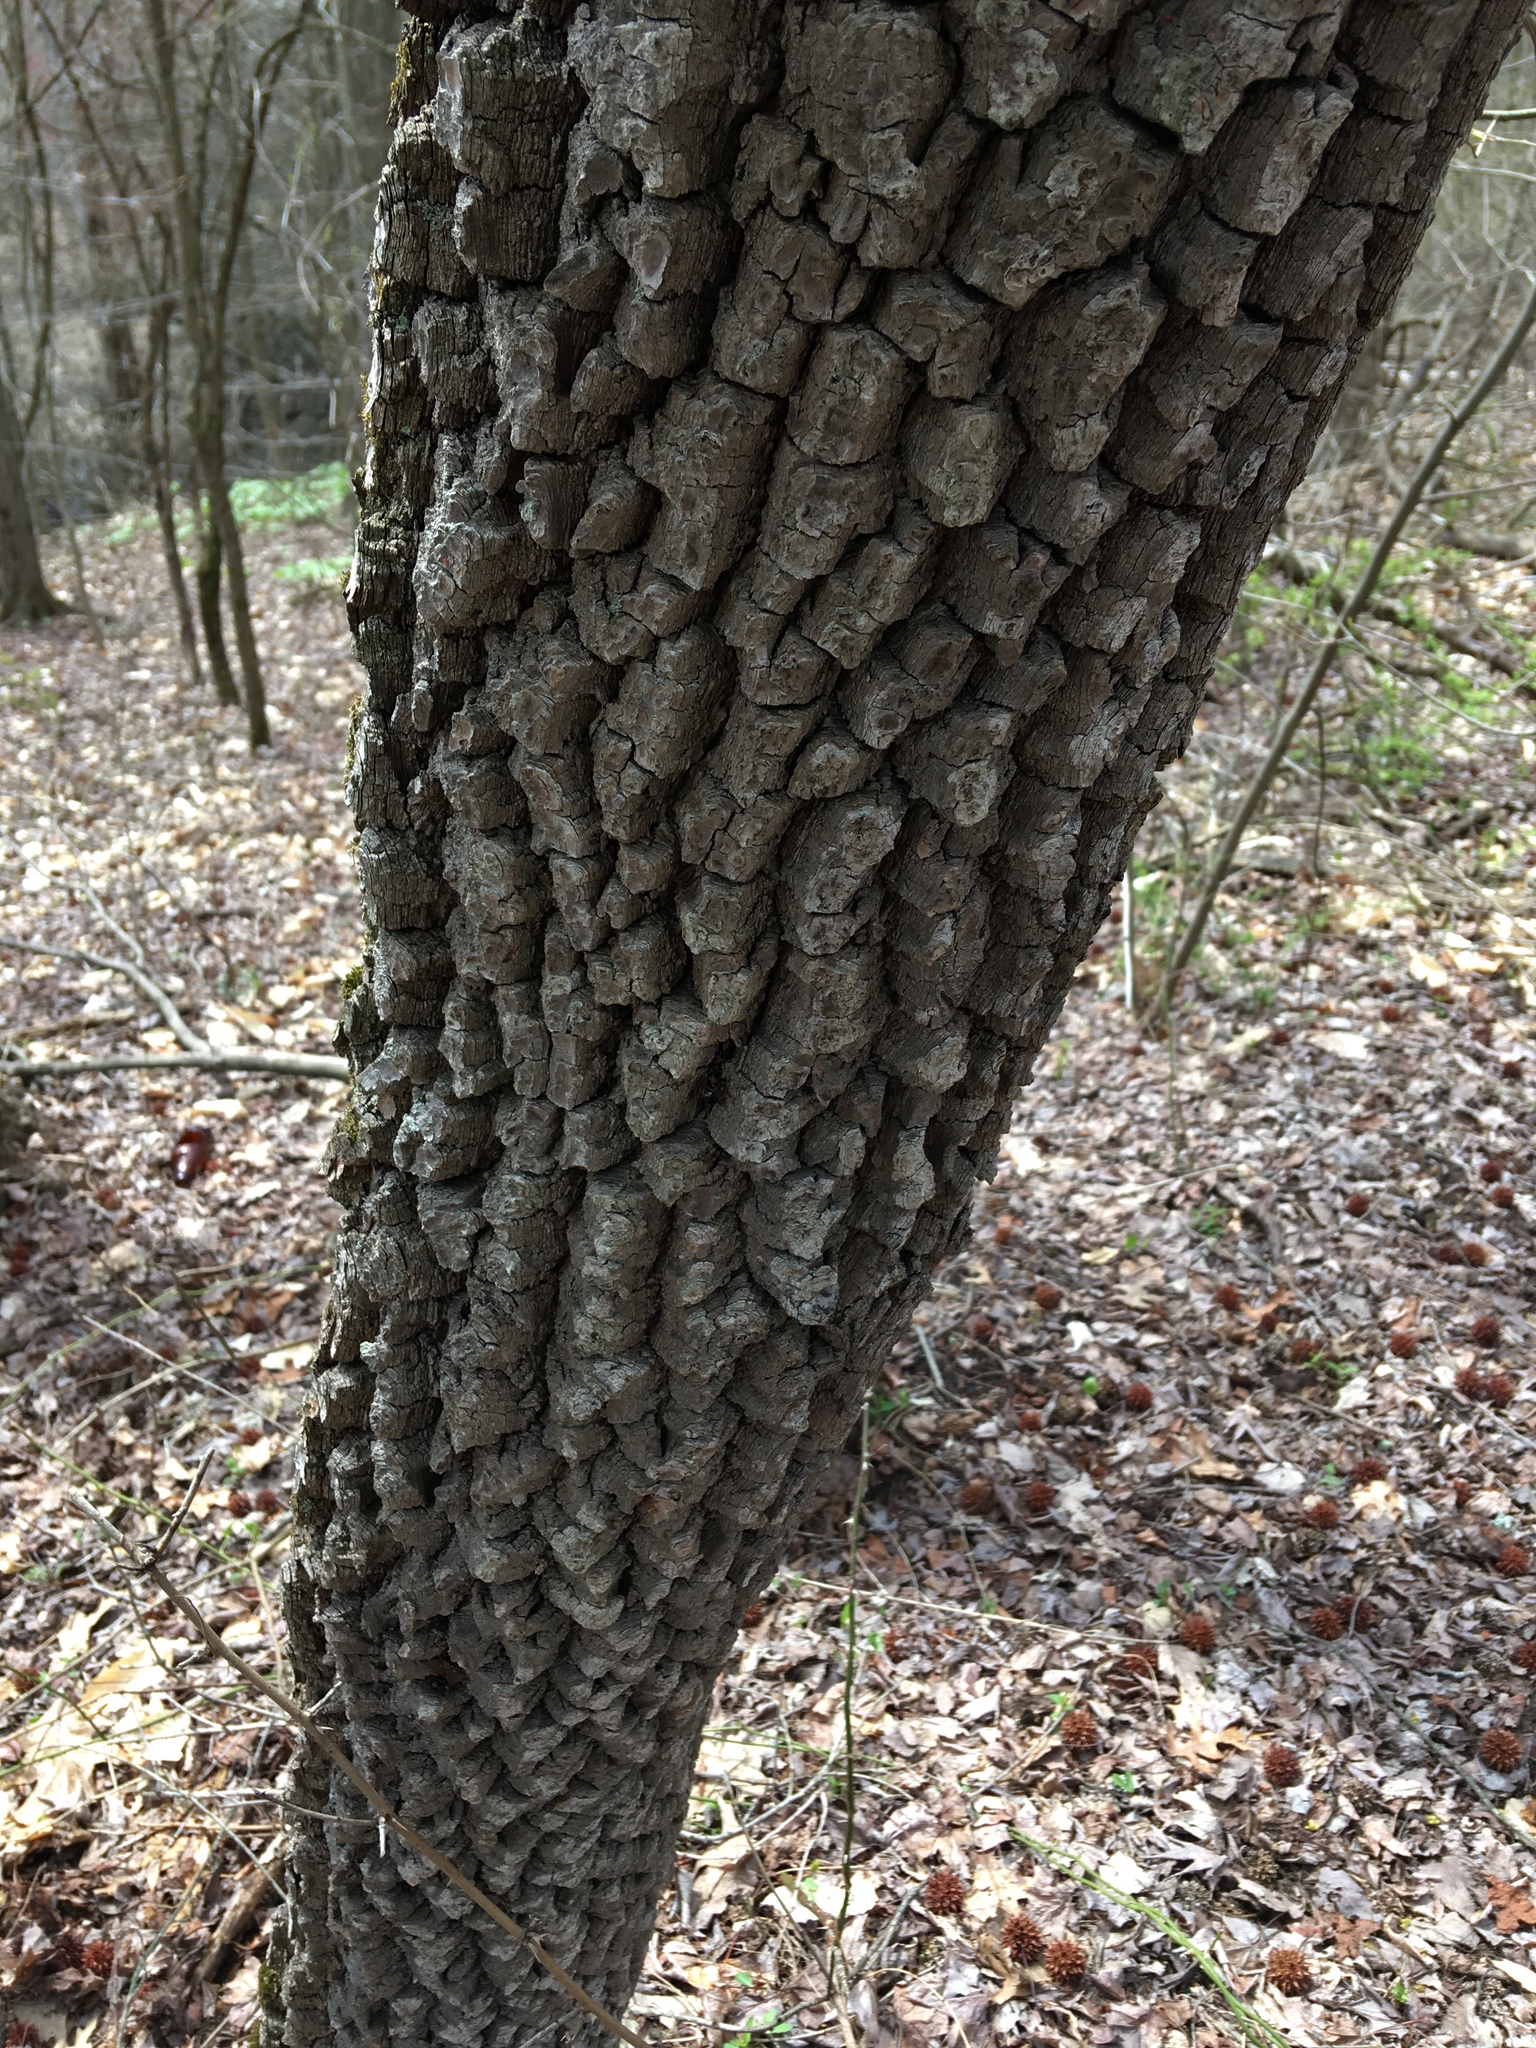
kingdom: Plantae
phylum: Tracheophyta
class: Magnoliopsida
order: Ericales
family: Ebenaceae
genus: Diospyros
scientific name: Diospyros virginiana
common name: Persimmon
